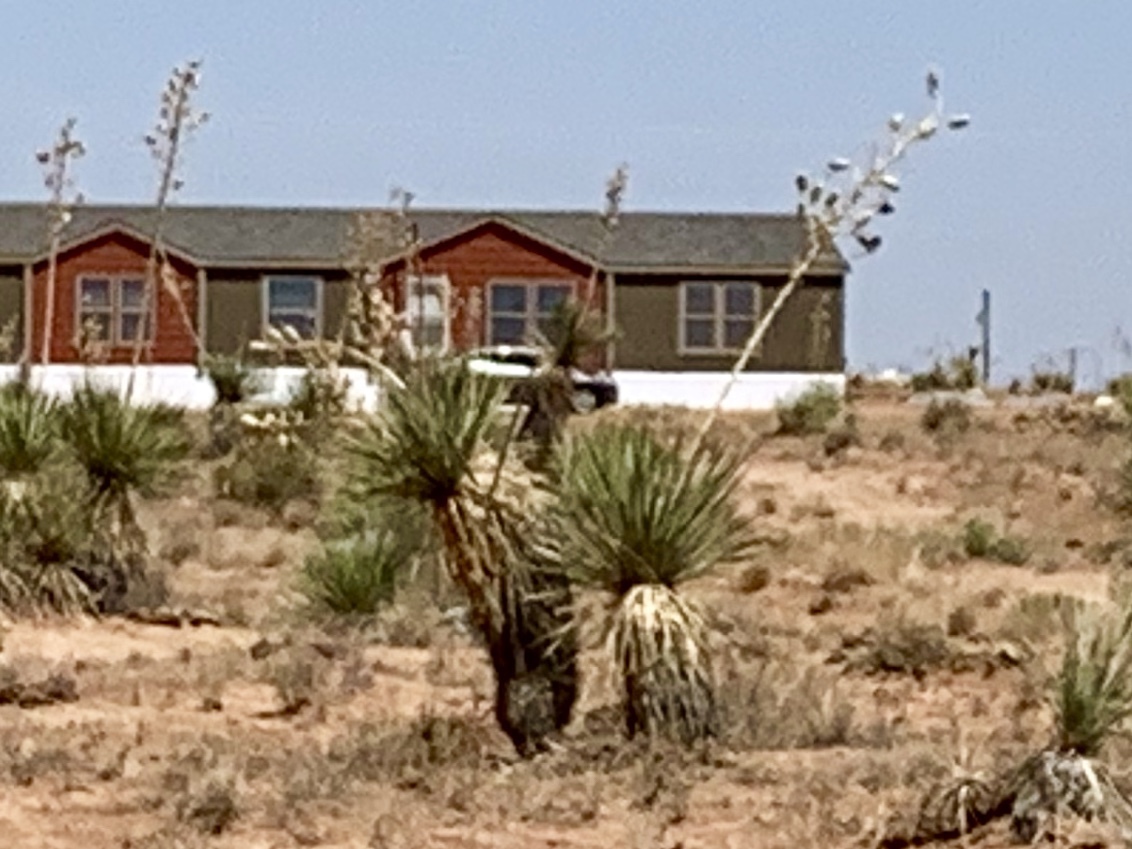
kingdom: Plantae
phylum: Tracheophyta
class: Liliopsida
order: Asparagales
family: Asparagaceae
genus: Yucca
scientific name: Yucca elata
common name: Palmella
